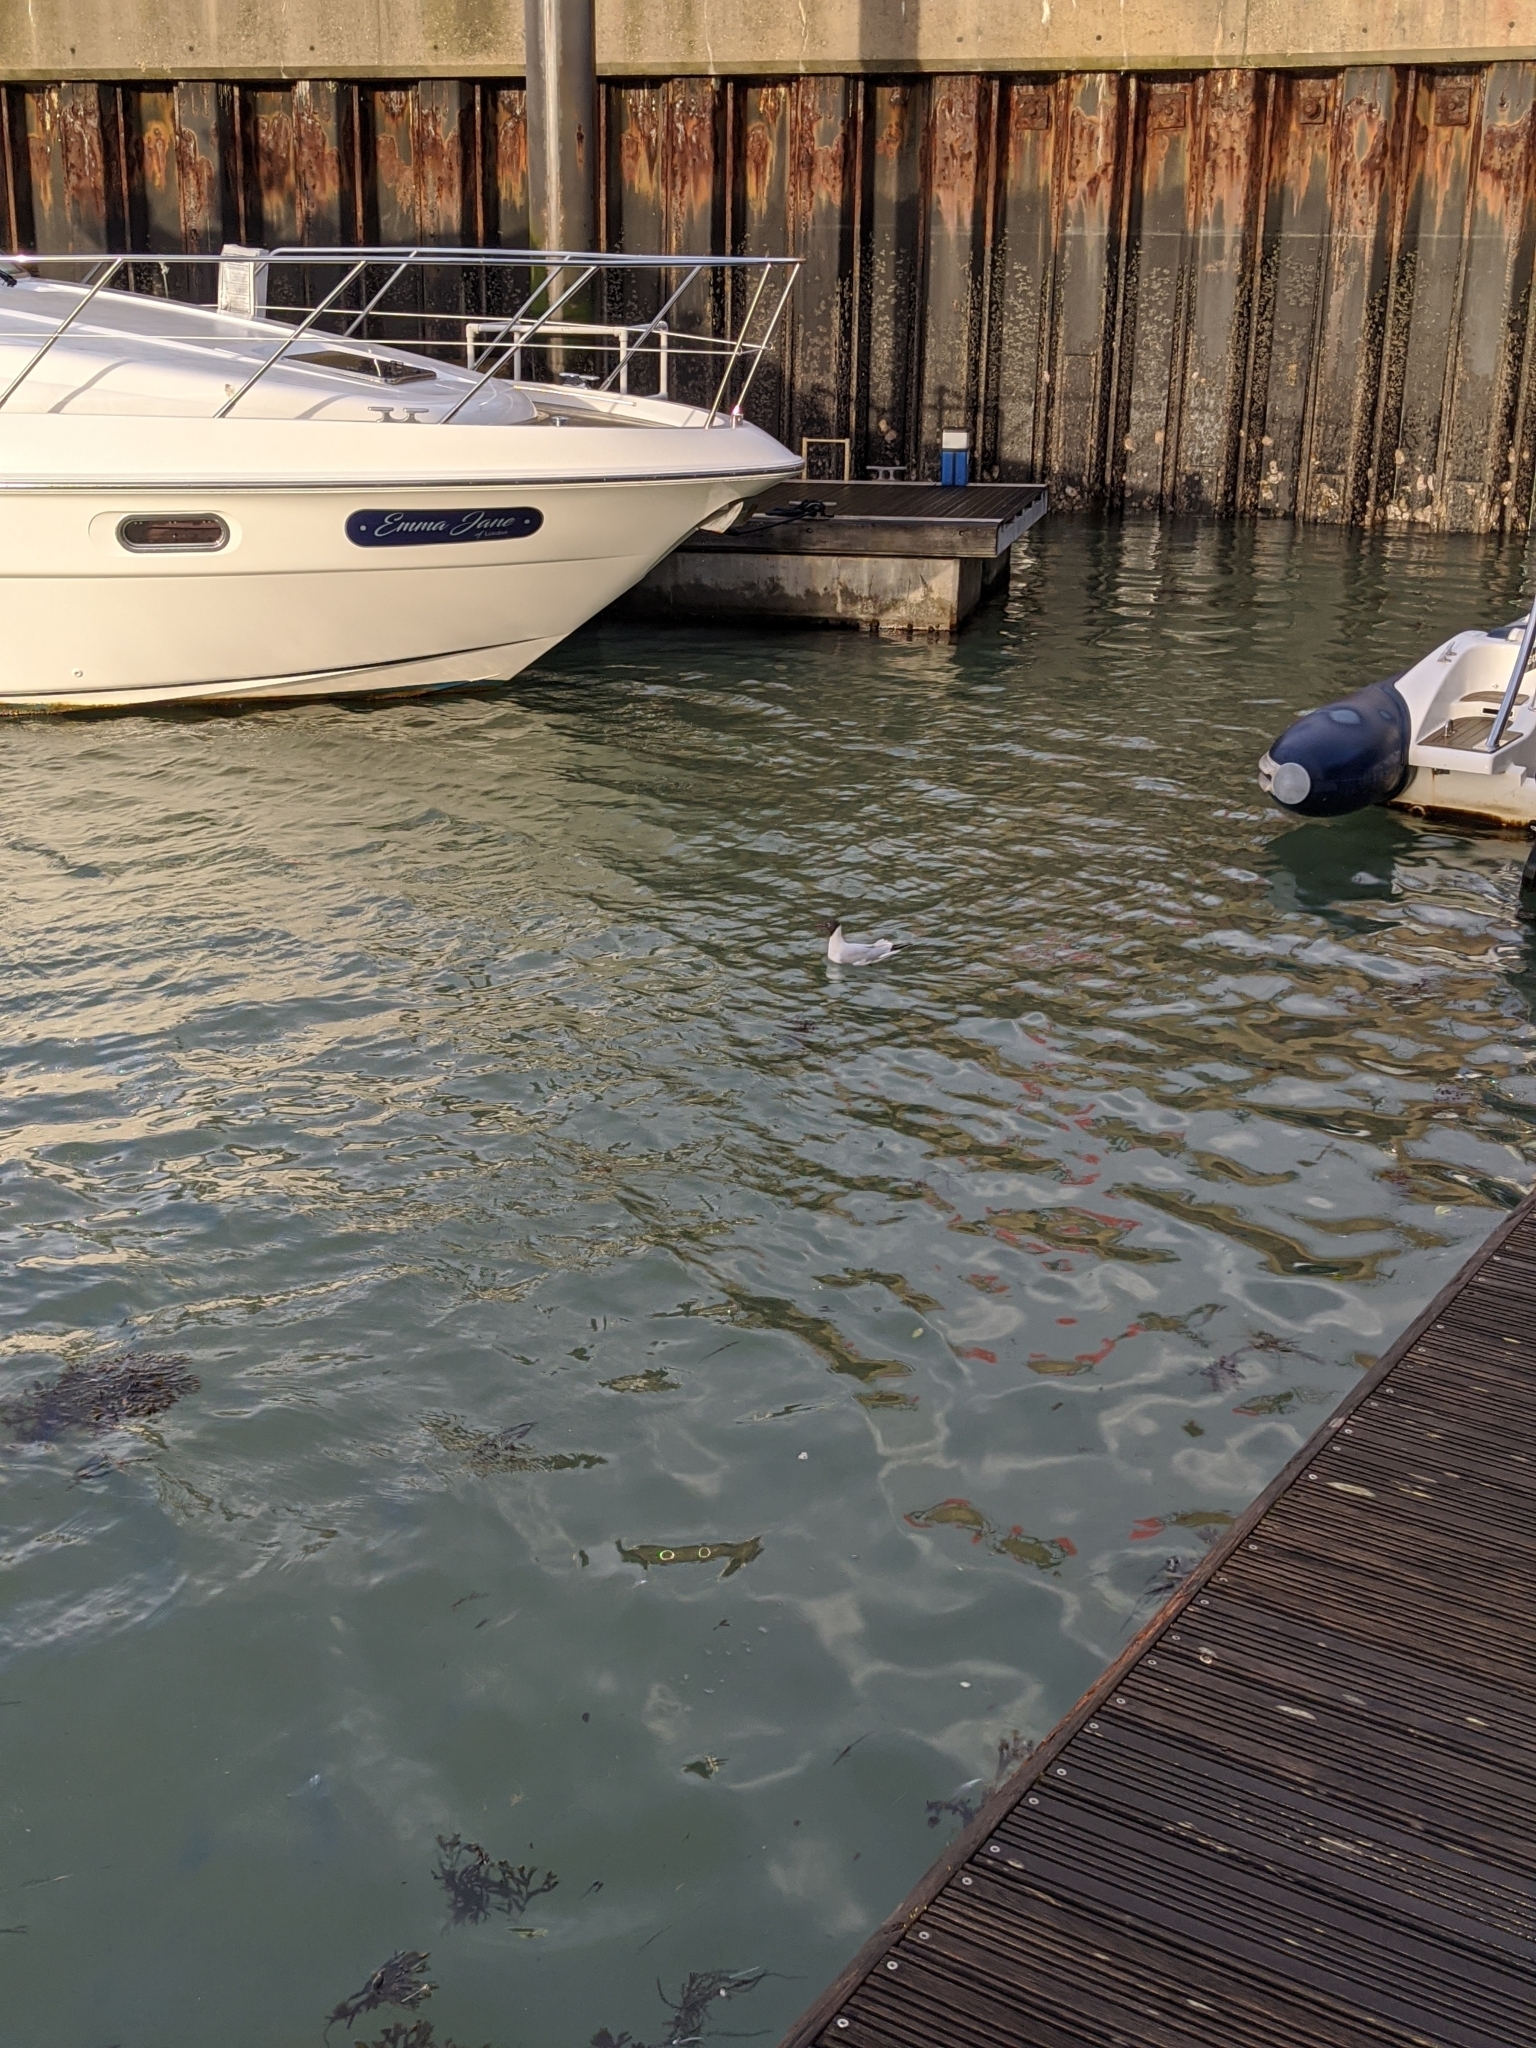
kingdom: Animalia
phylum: Chordata
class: Aves
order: Charadriiformes
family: Laridae
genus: Chroicocephalus
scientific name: Chroicocephalus ridibundus
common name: Black-headed gull
